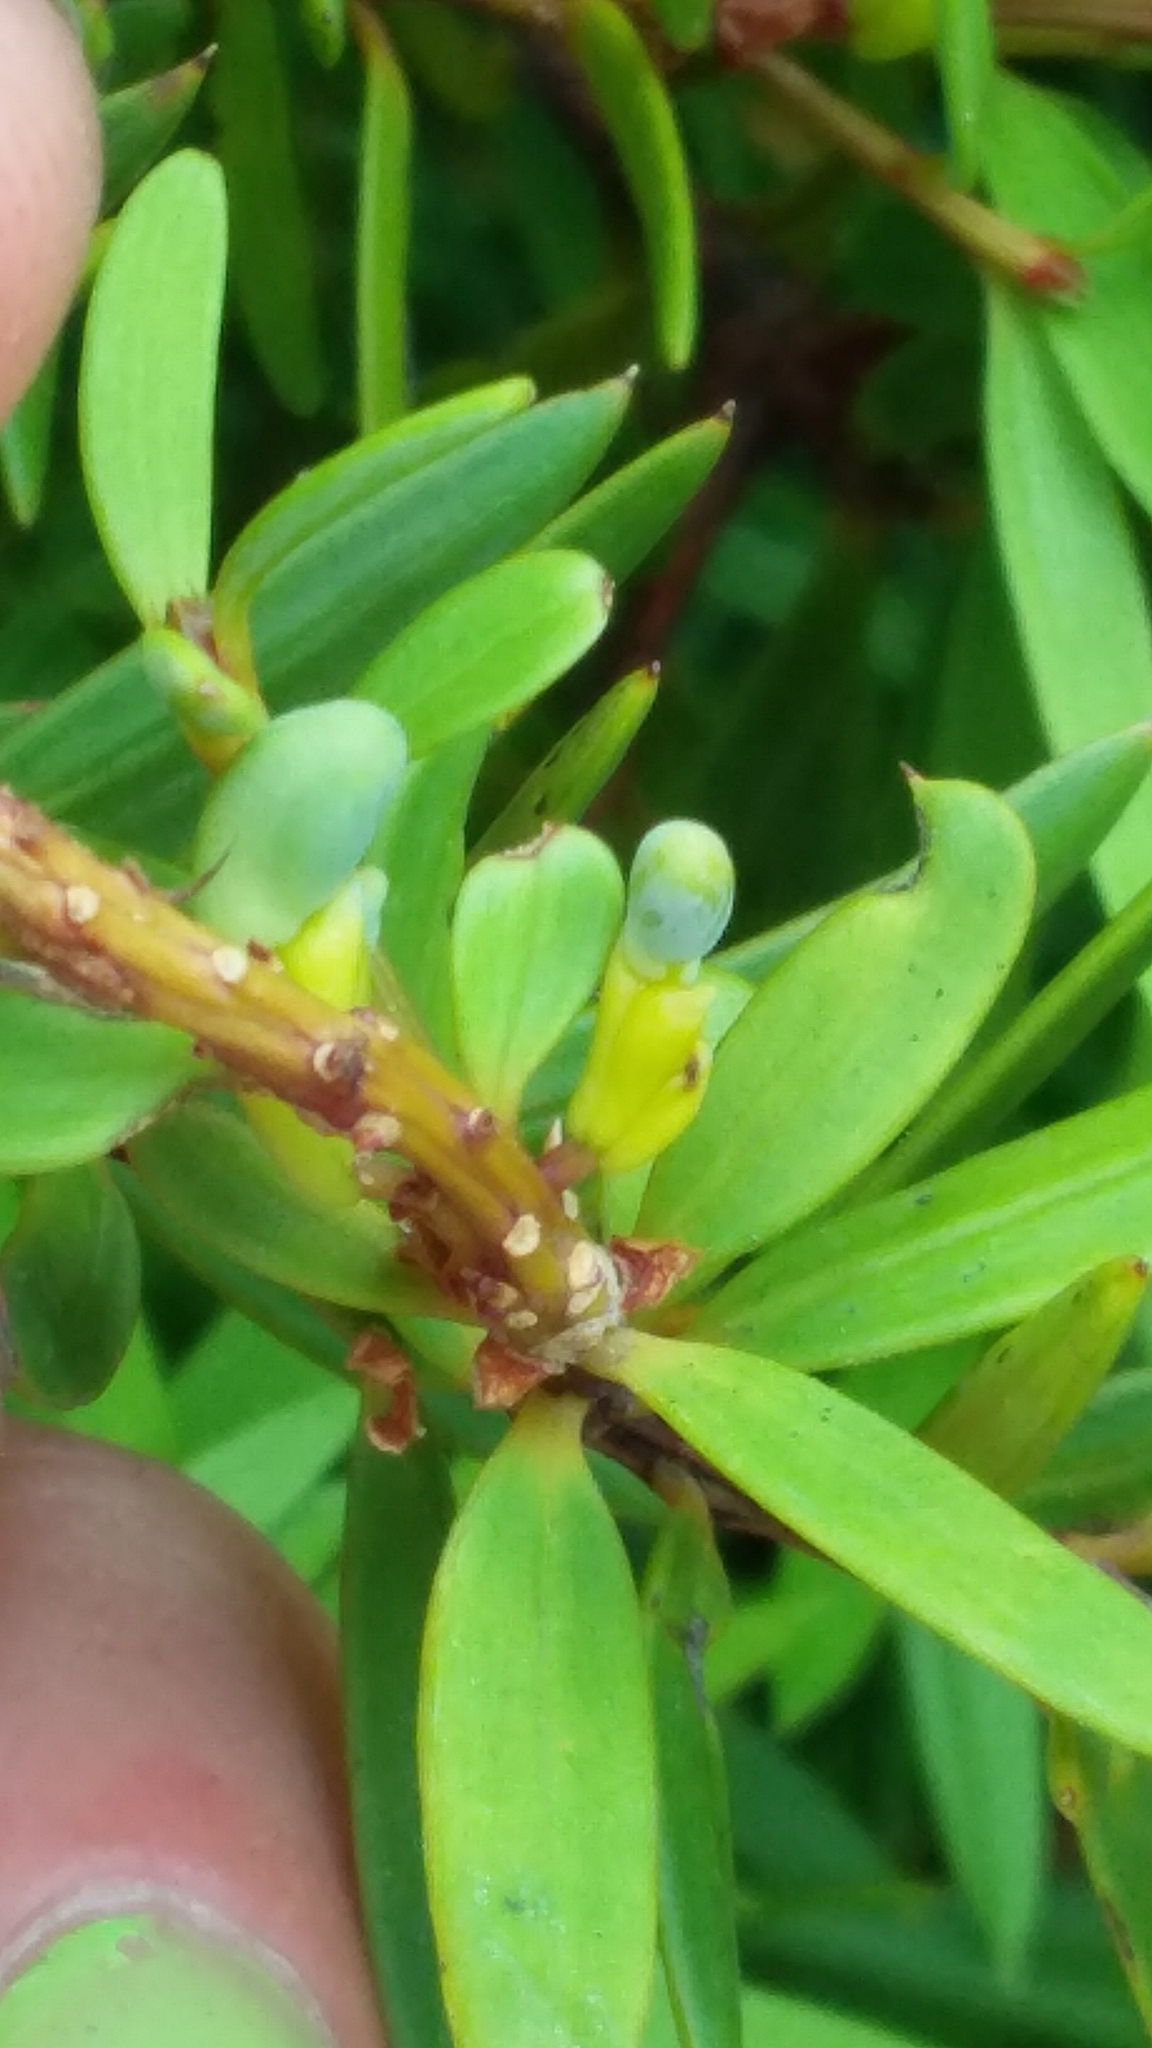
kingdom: Plantae
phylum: Tracheophyta
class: Pinopsida
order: Pinales
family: Podocarpaceae
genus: Podocarpus
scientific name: Podocarpus laetus
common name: Hall's totara
